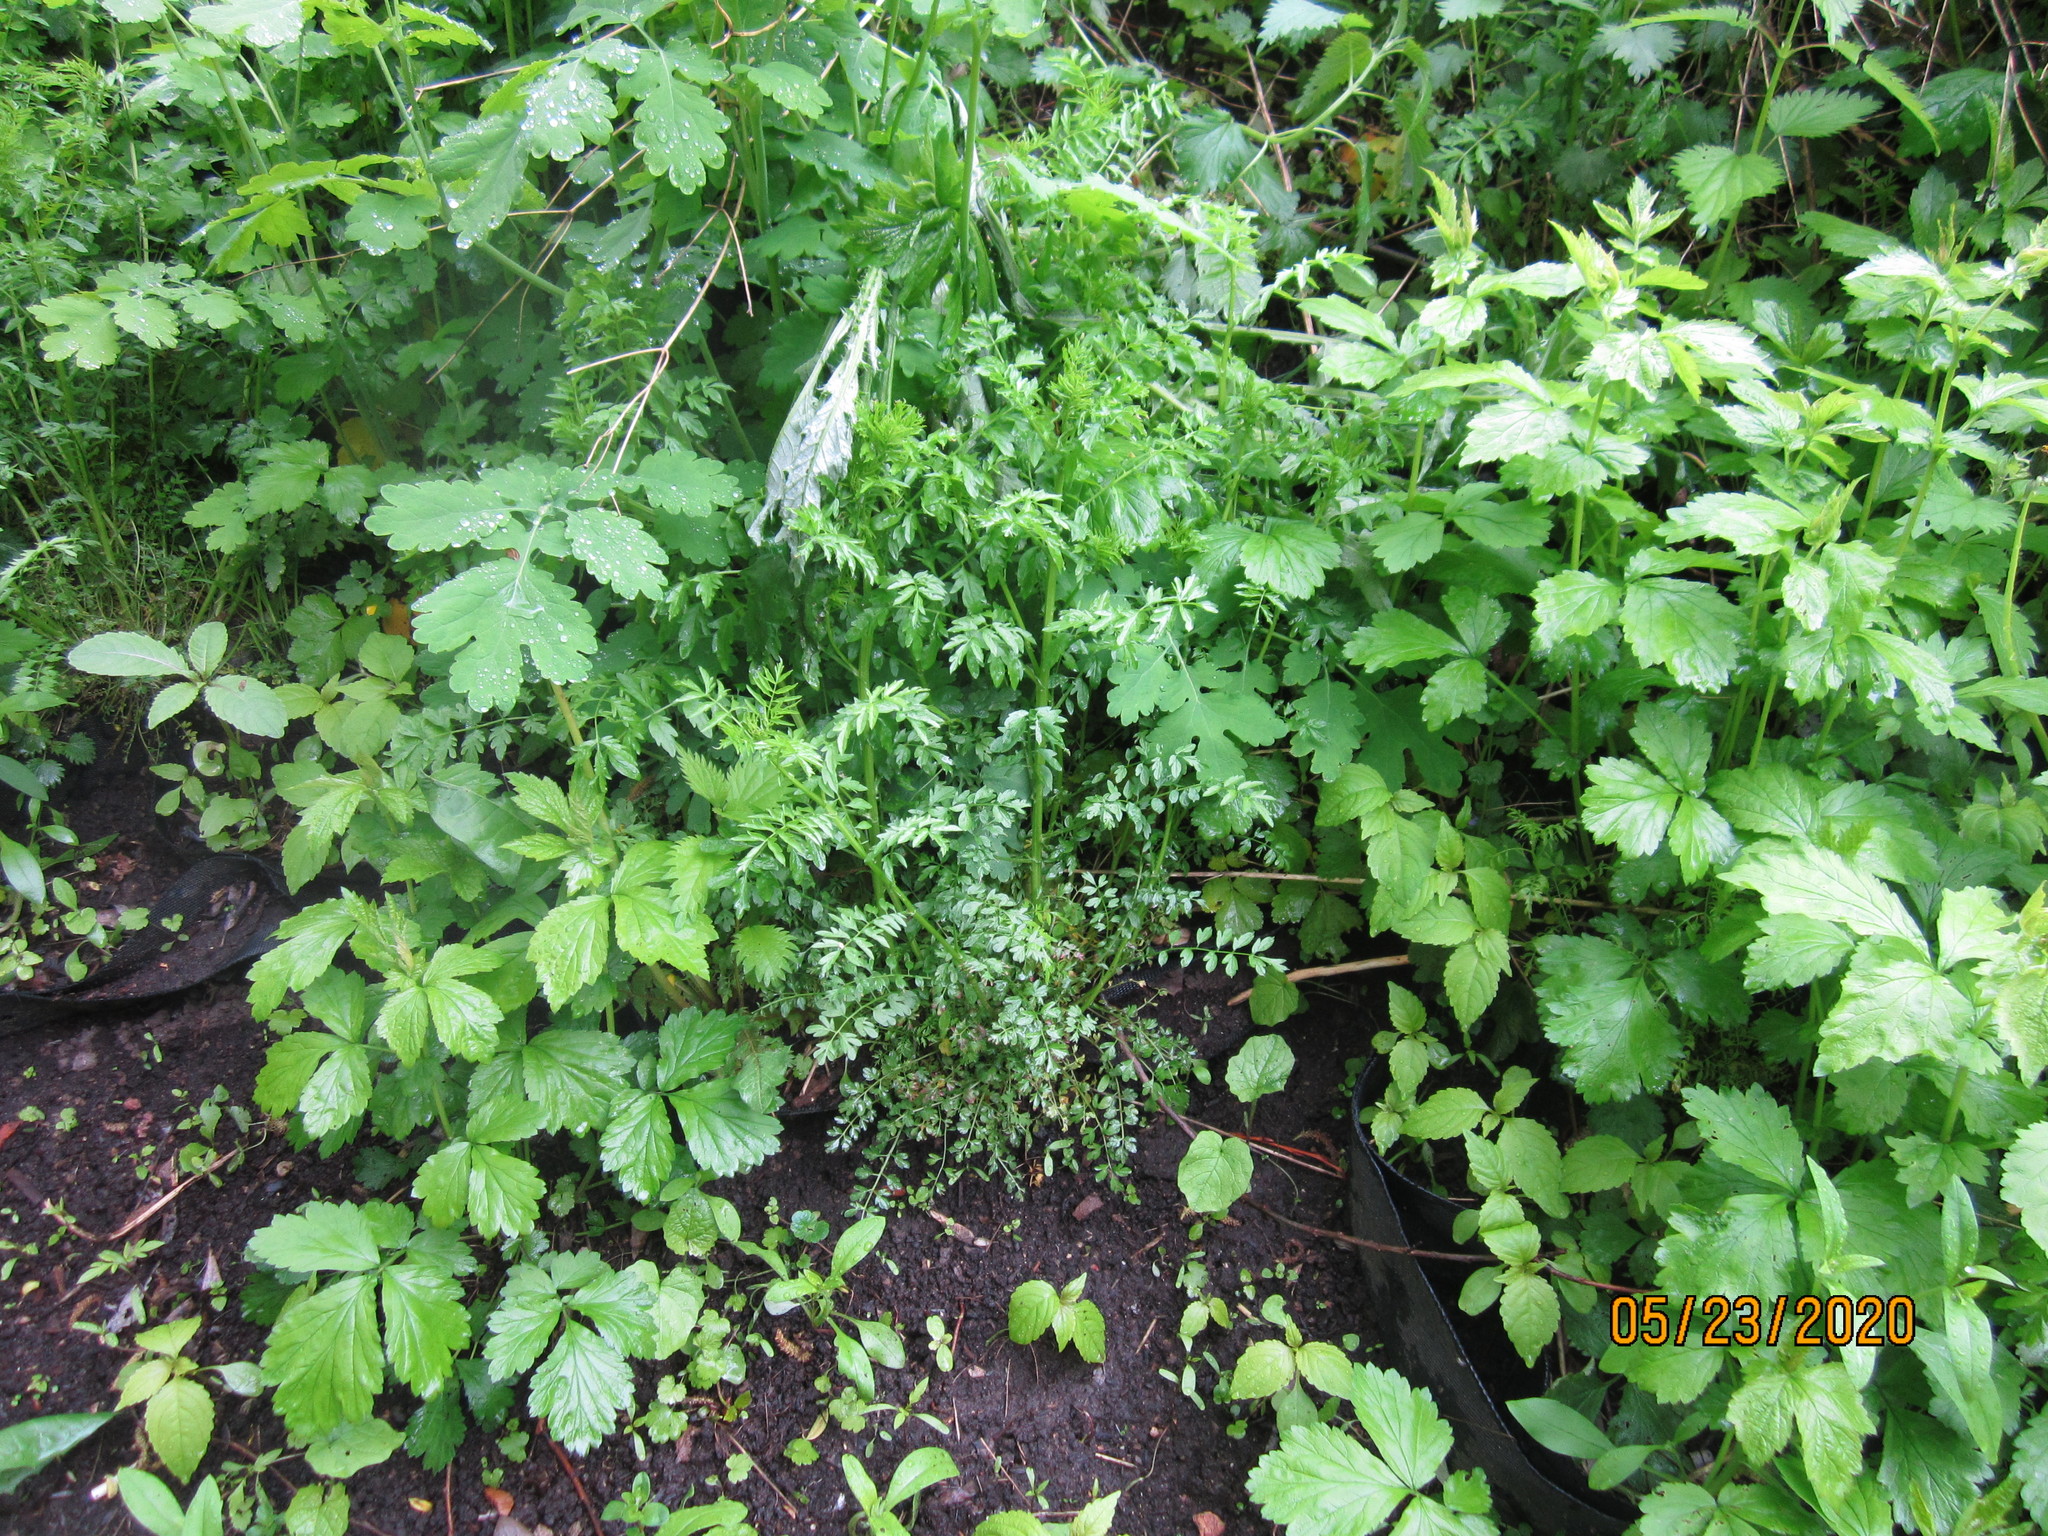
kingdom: Plantae
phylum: Tracheophyta
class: Magnoliopsida
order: Brassicales
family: Brassicaceae
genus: Cardamine
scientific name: Cardamine impatiens
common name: Narrow-leaved bitter-cress
